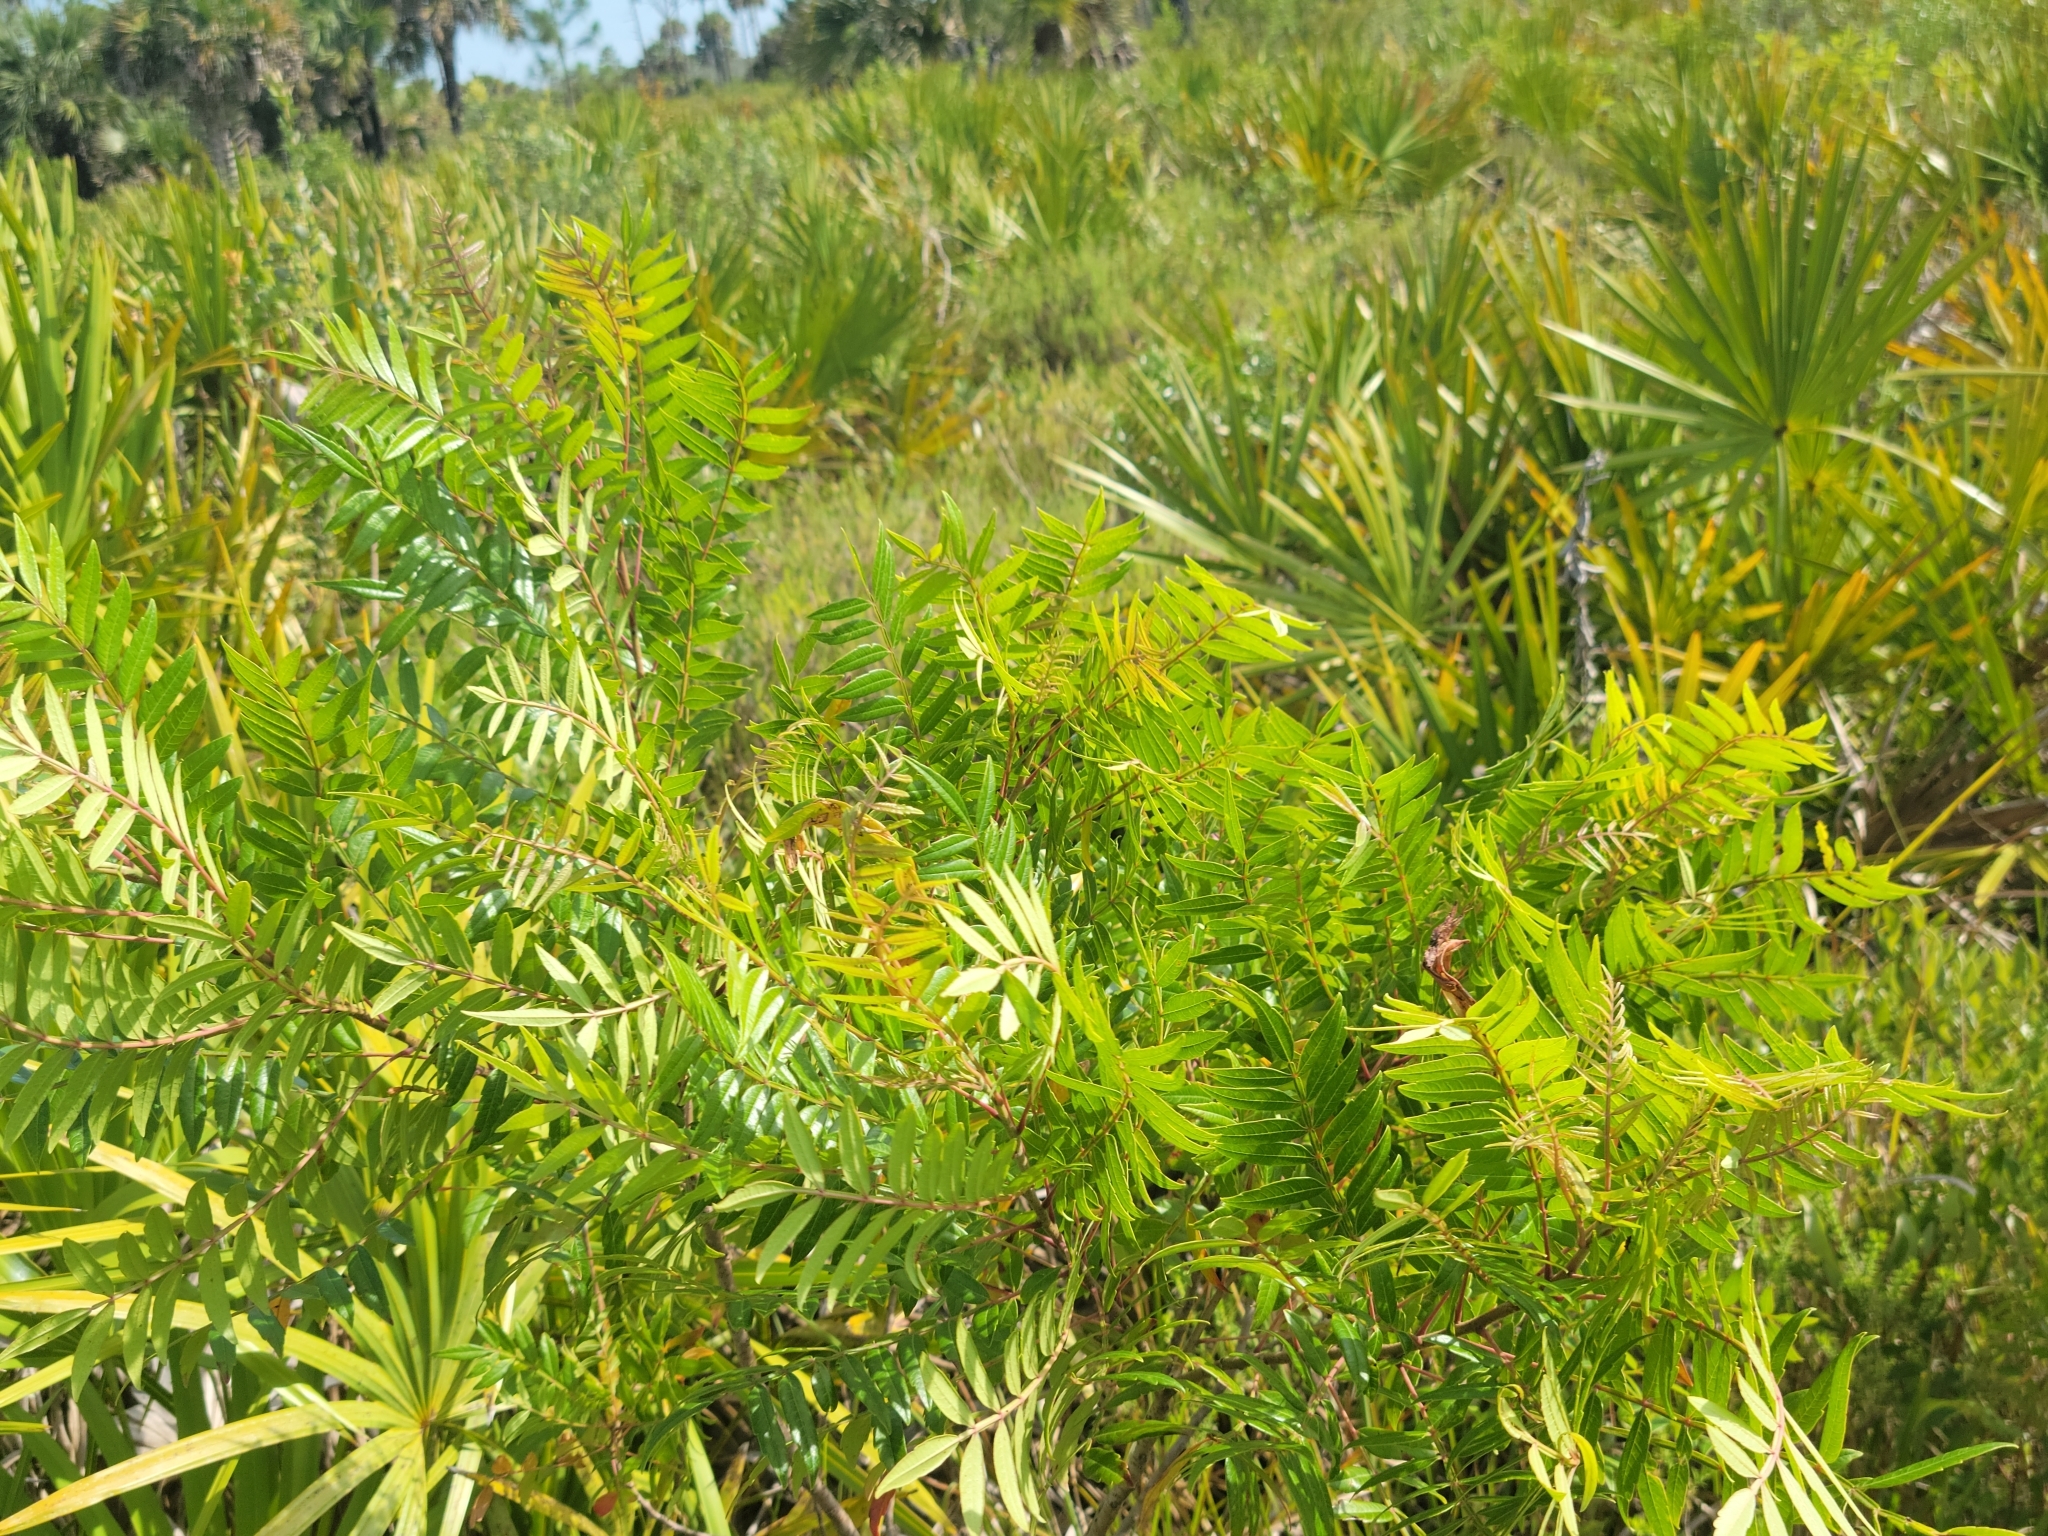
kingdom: Plantae
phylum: Tracheophyta
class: Magnoliopsida
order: Sapindales
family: Anacardiaceae
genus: Rhus
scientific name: Rhus copallina
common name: Shining sumac
